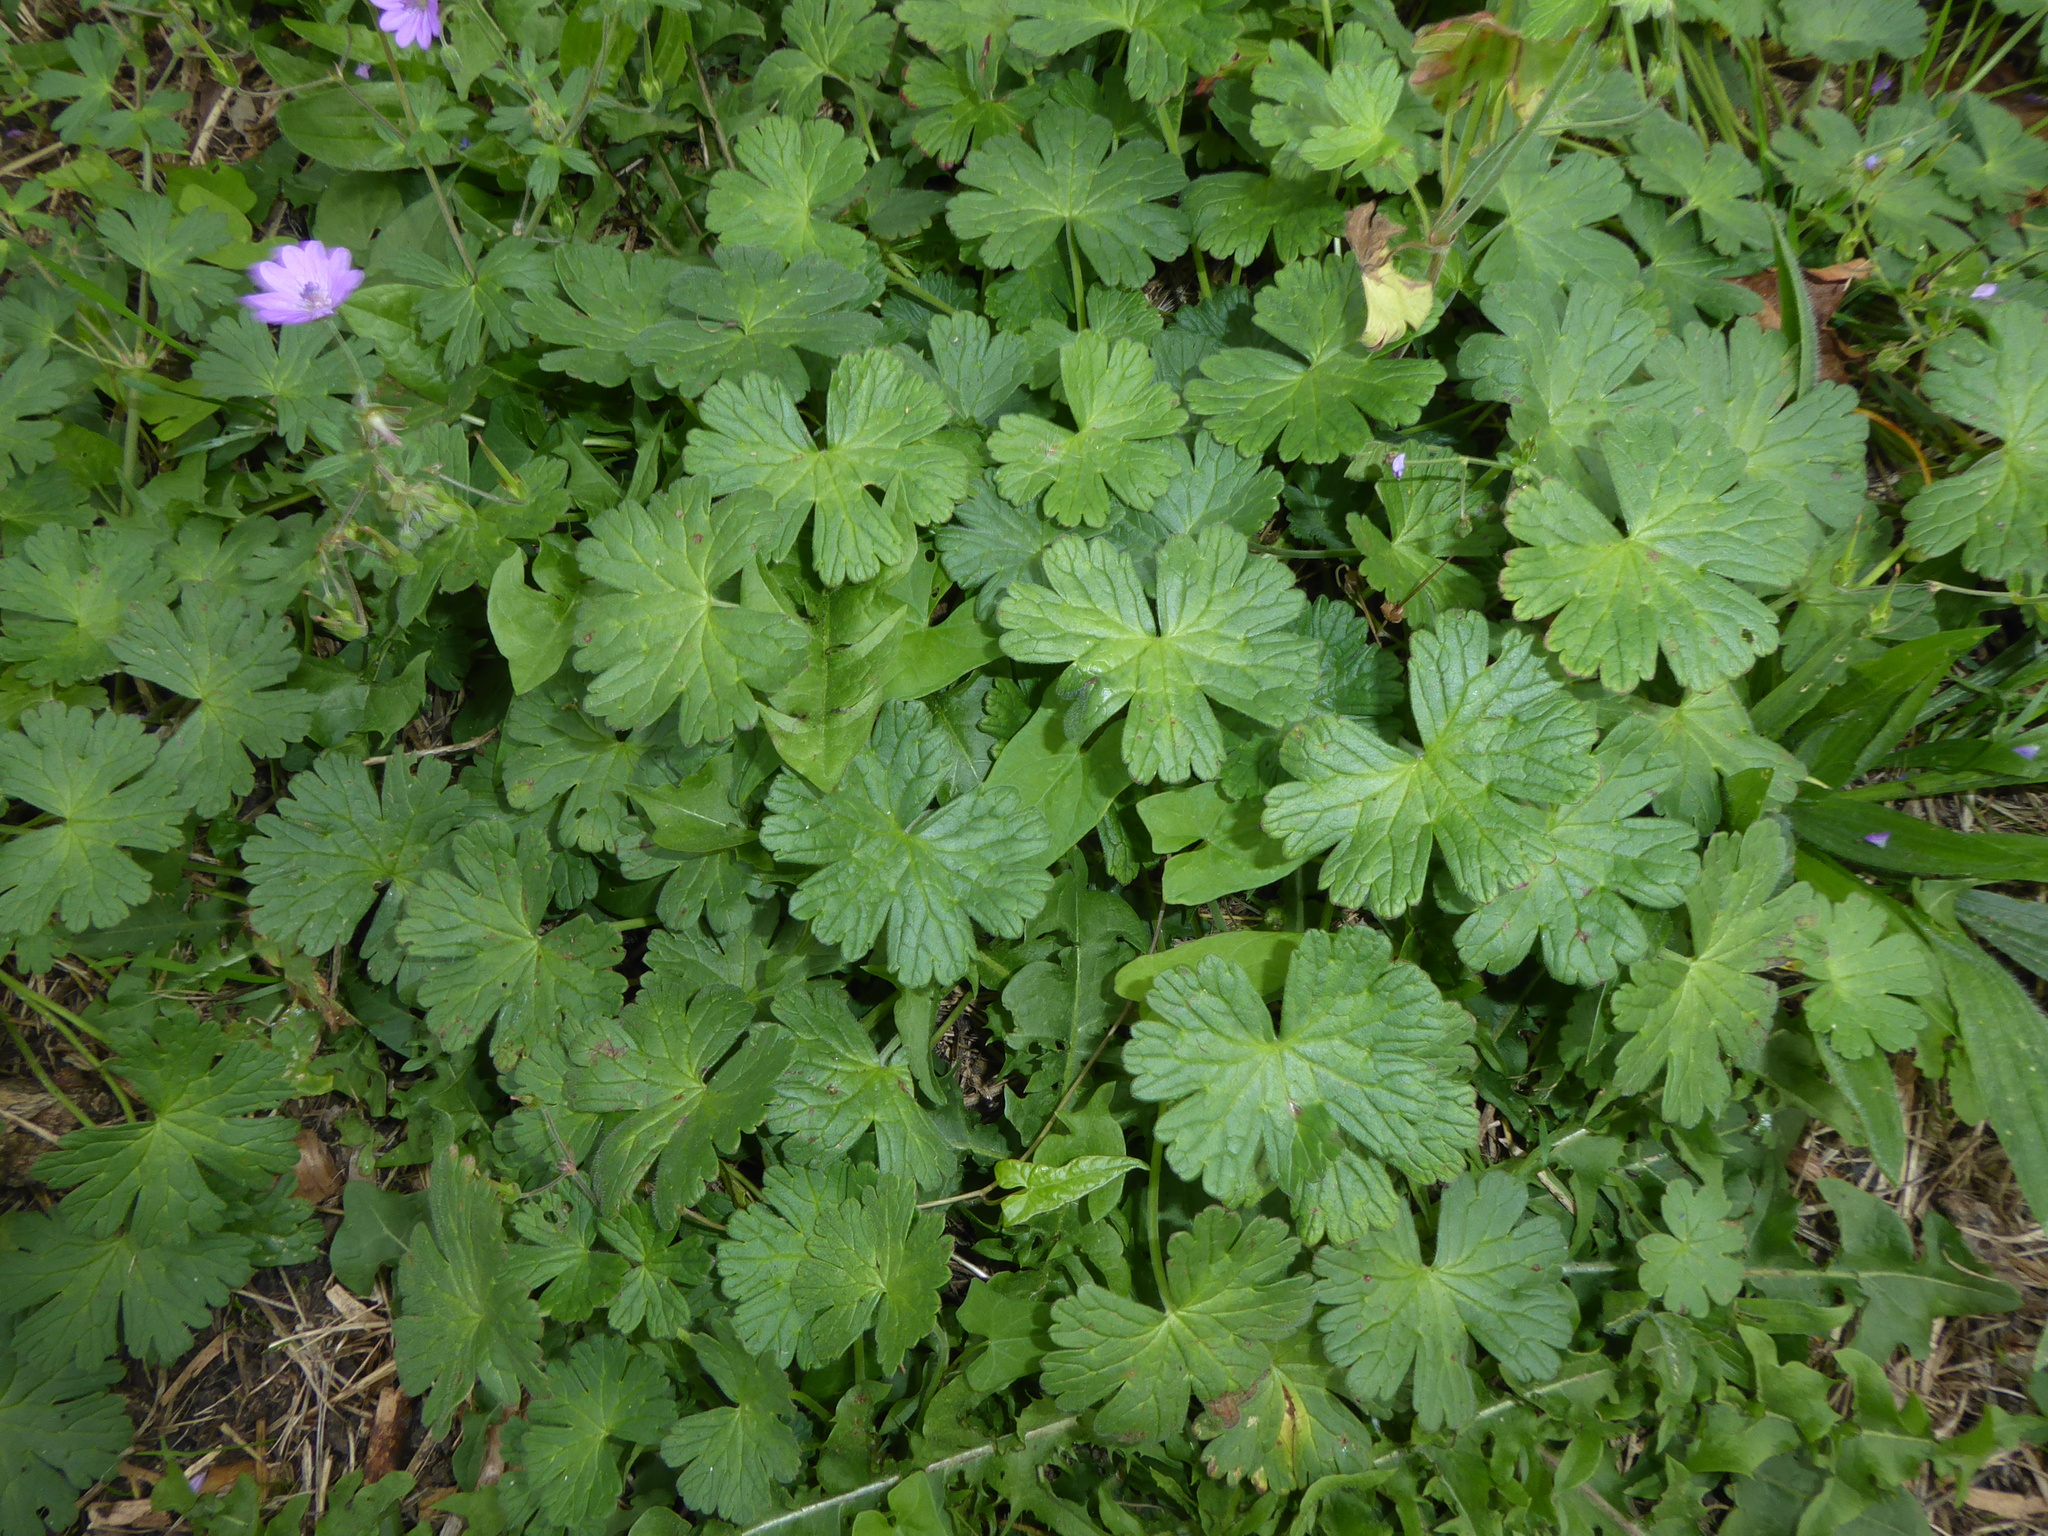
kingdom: Plantae
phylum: Tracheophyta
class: Magnoliopsida
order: Geraniales
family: Geraniaceae
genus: Geranium
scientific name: Geranium pyrenaicum
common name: Hedgerow crane's-bill
